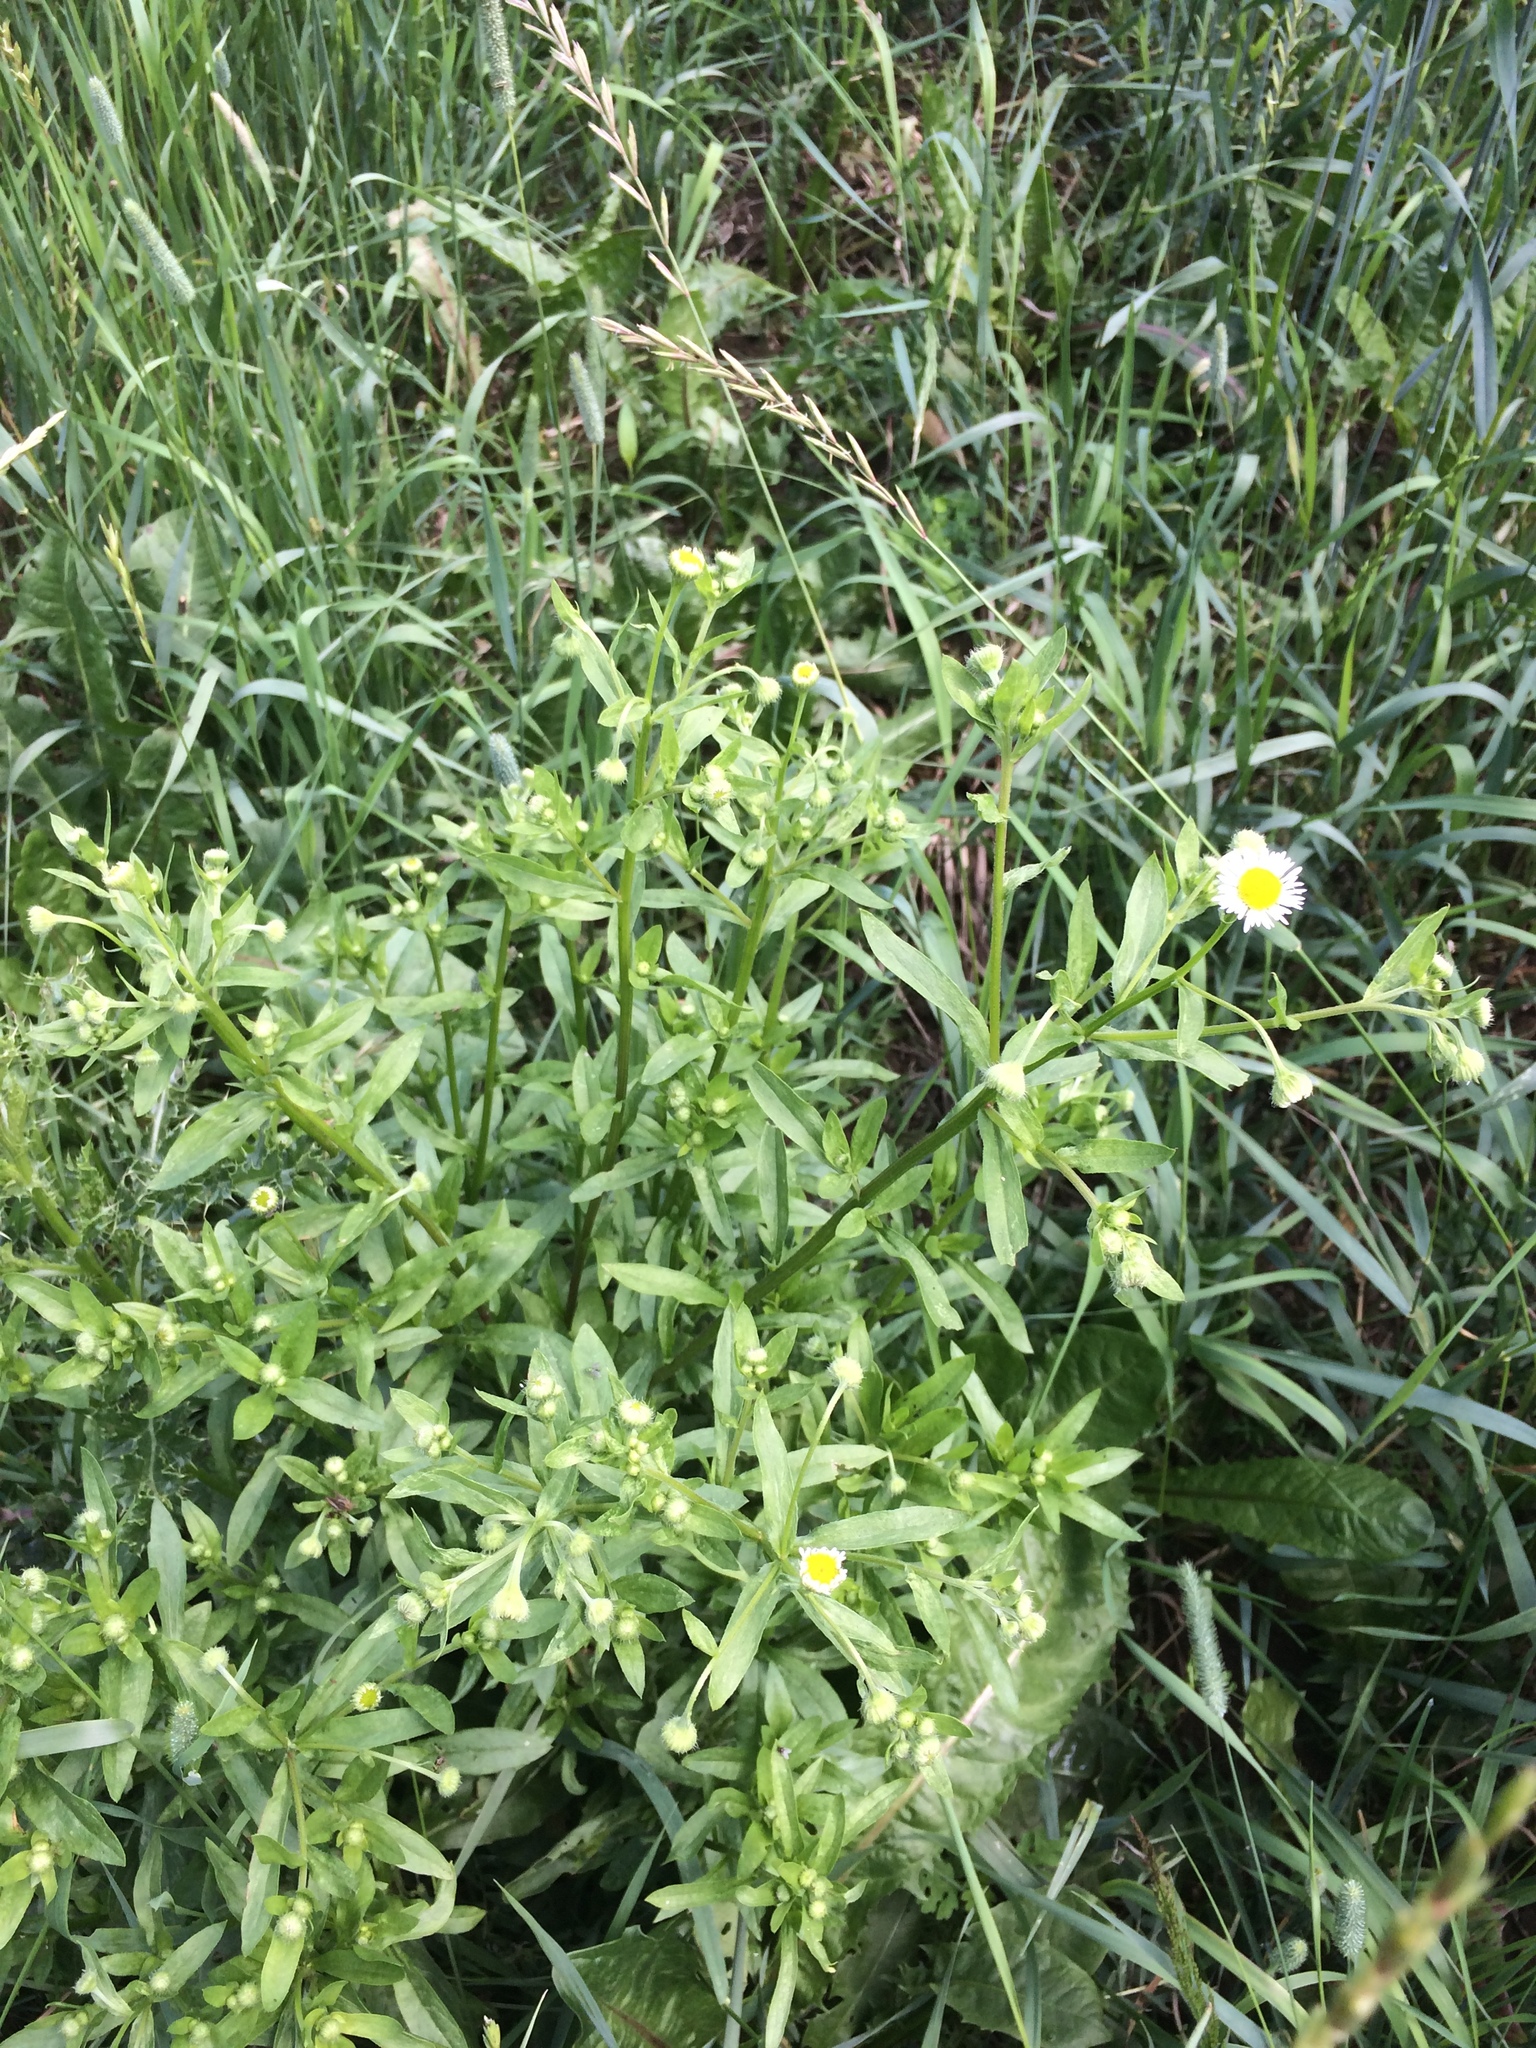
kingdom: Plantae
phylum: Tracheophyta
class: Magnoliopsida
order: Asterales
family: Asteraceae
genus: Erigeron
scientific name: Erigeron annuus
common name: Tall fleabane
